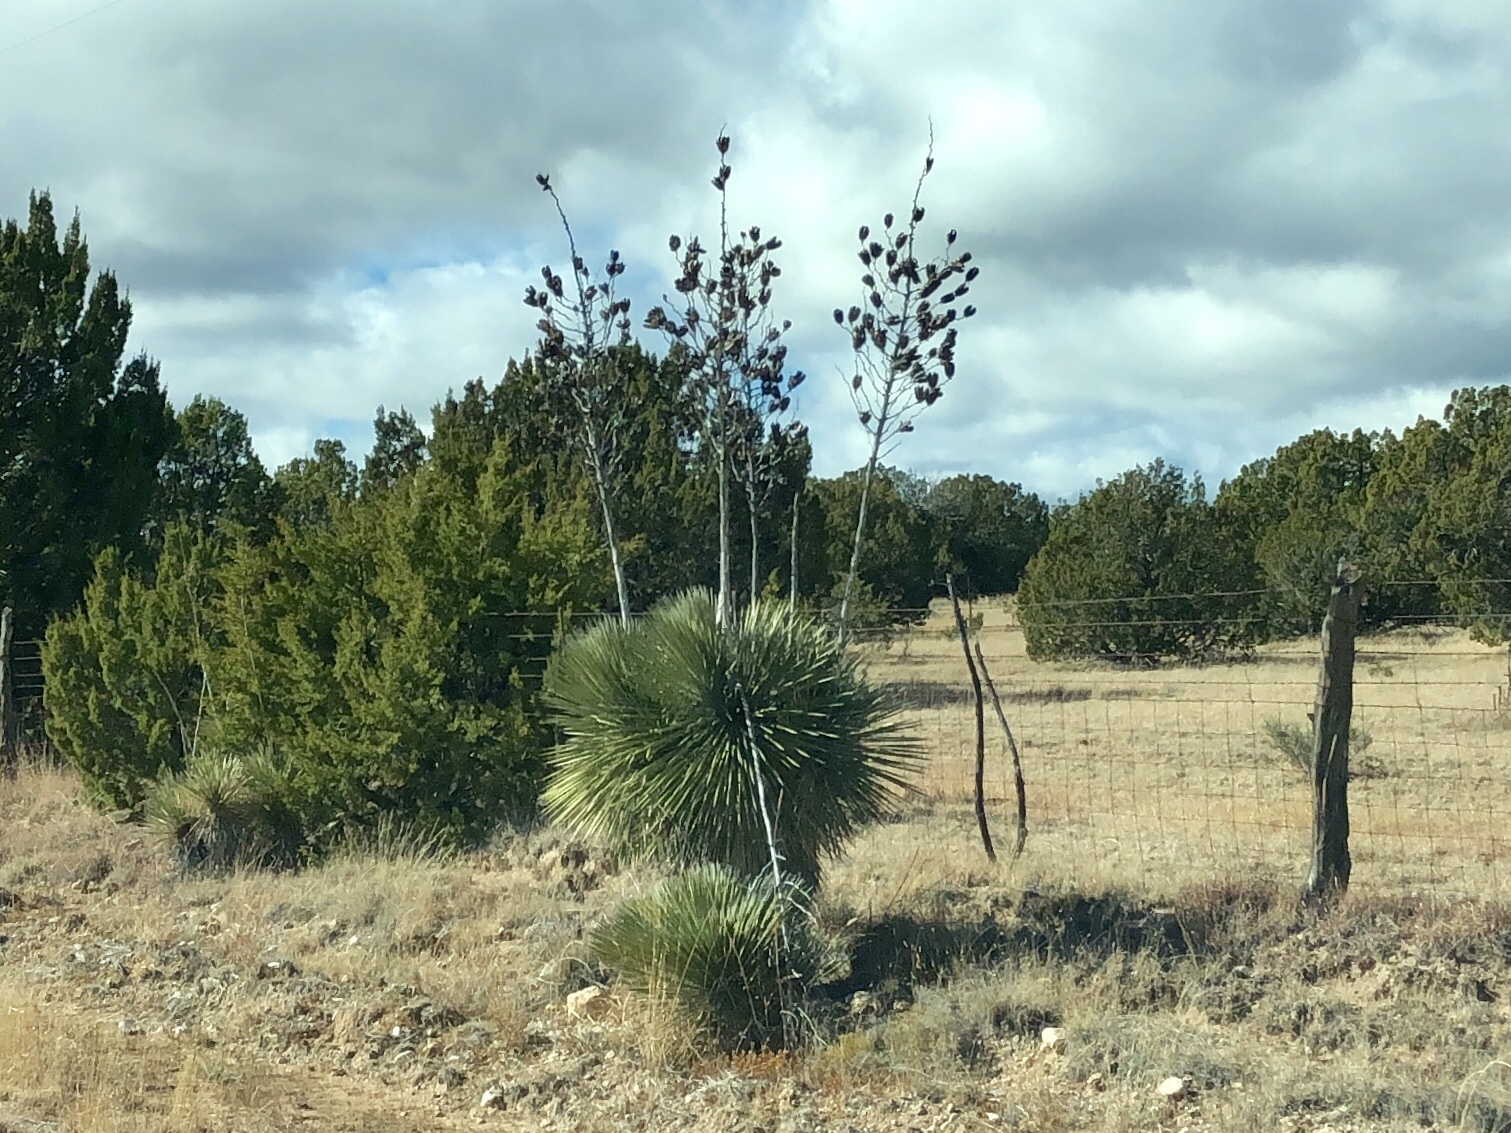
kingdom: Plantae
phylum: Tracheophyta
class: Liliopsida
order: Asparagales
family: Asparagaceae
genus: Yucca
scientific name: Yucca elata
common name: Palmella
